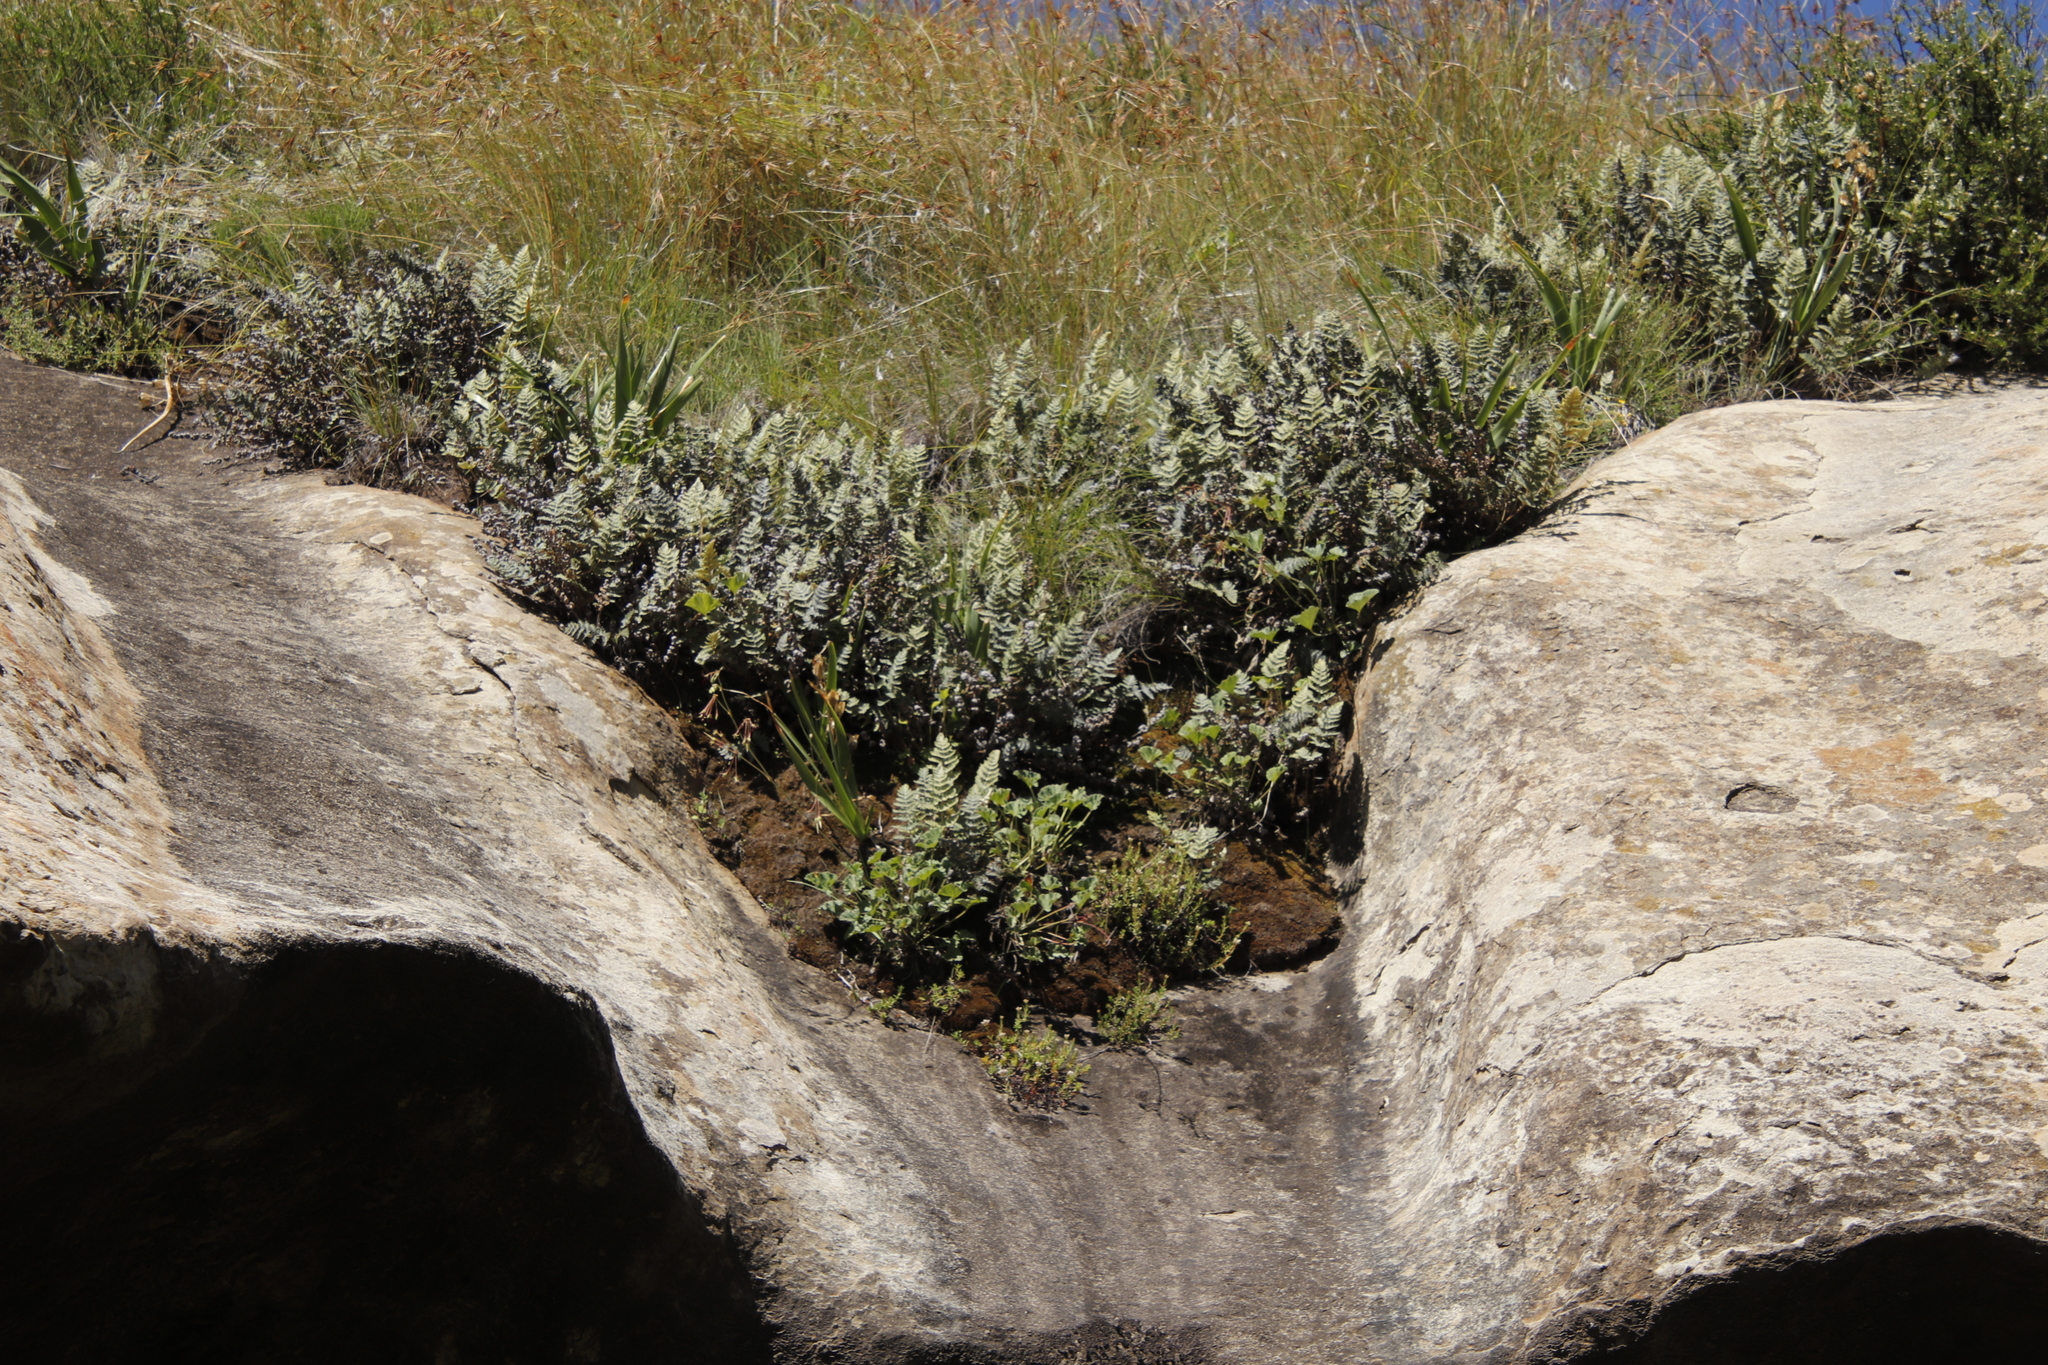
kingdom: Plantae
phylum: Tracheophyta
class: Polypodiopsida
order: Polypodiales
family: Pteridaceae
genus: Cheilanthes
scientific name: Cheilanthes eckloniana
